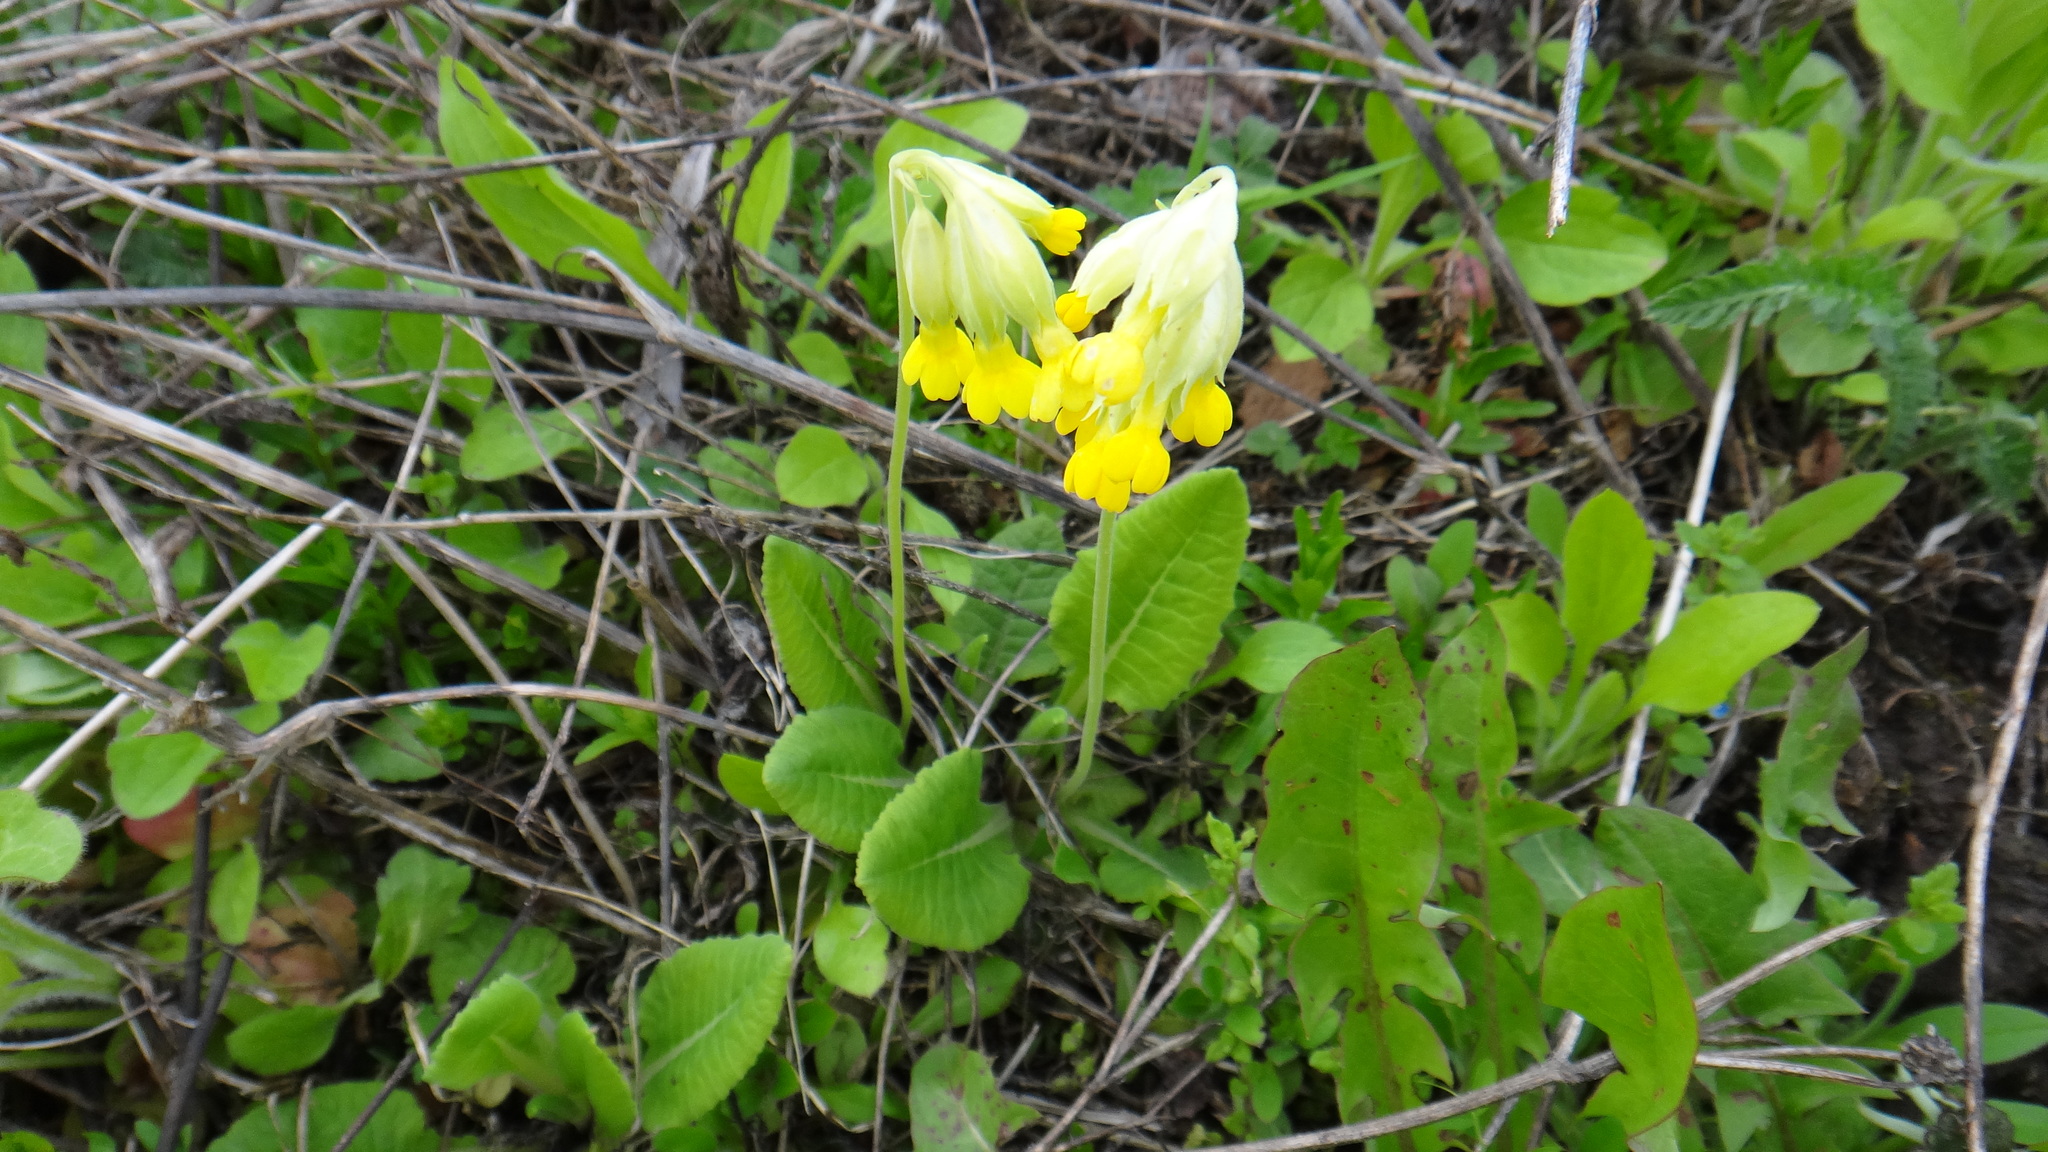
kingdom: Plantae
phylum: Tracheophyta
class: Magnoliopsida
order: Ericales
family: Primulaceae
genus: Primula
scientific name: Primula veris
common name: Cowslip
